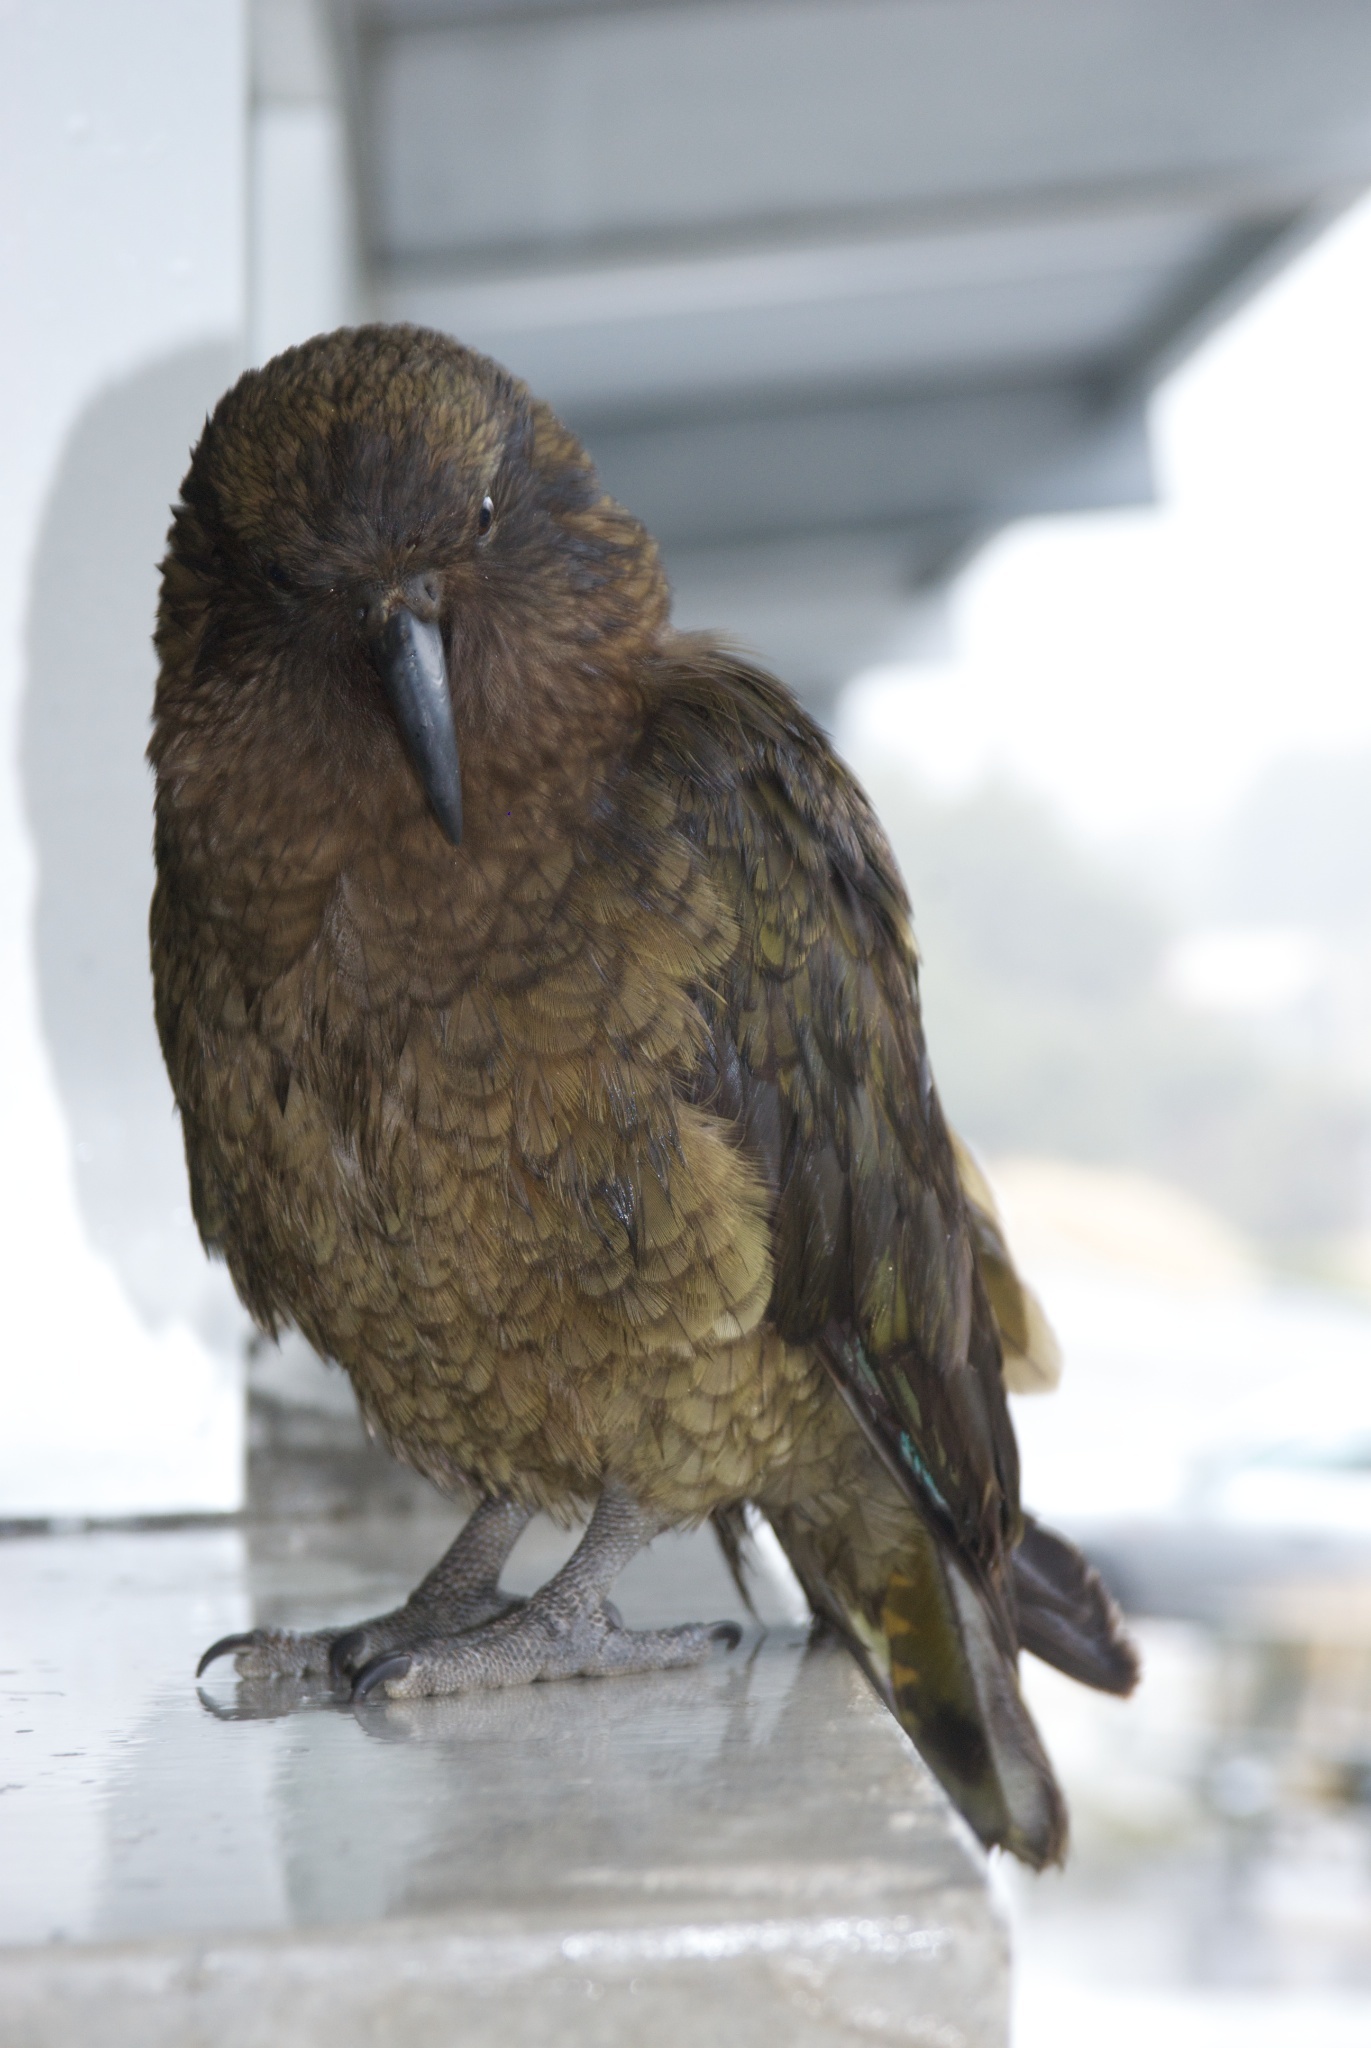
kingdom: Animalia
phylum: Chordata
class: Aves
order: Psittaciformes
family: Psittacidae
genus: Nestor
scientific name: Nestor notabilis
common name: Kea
